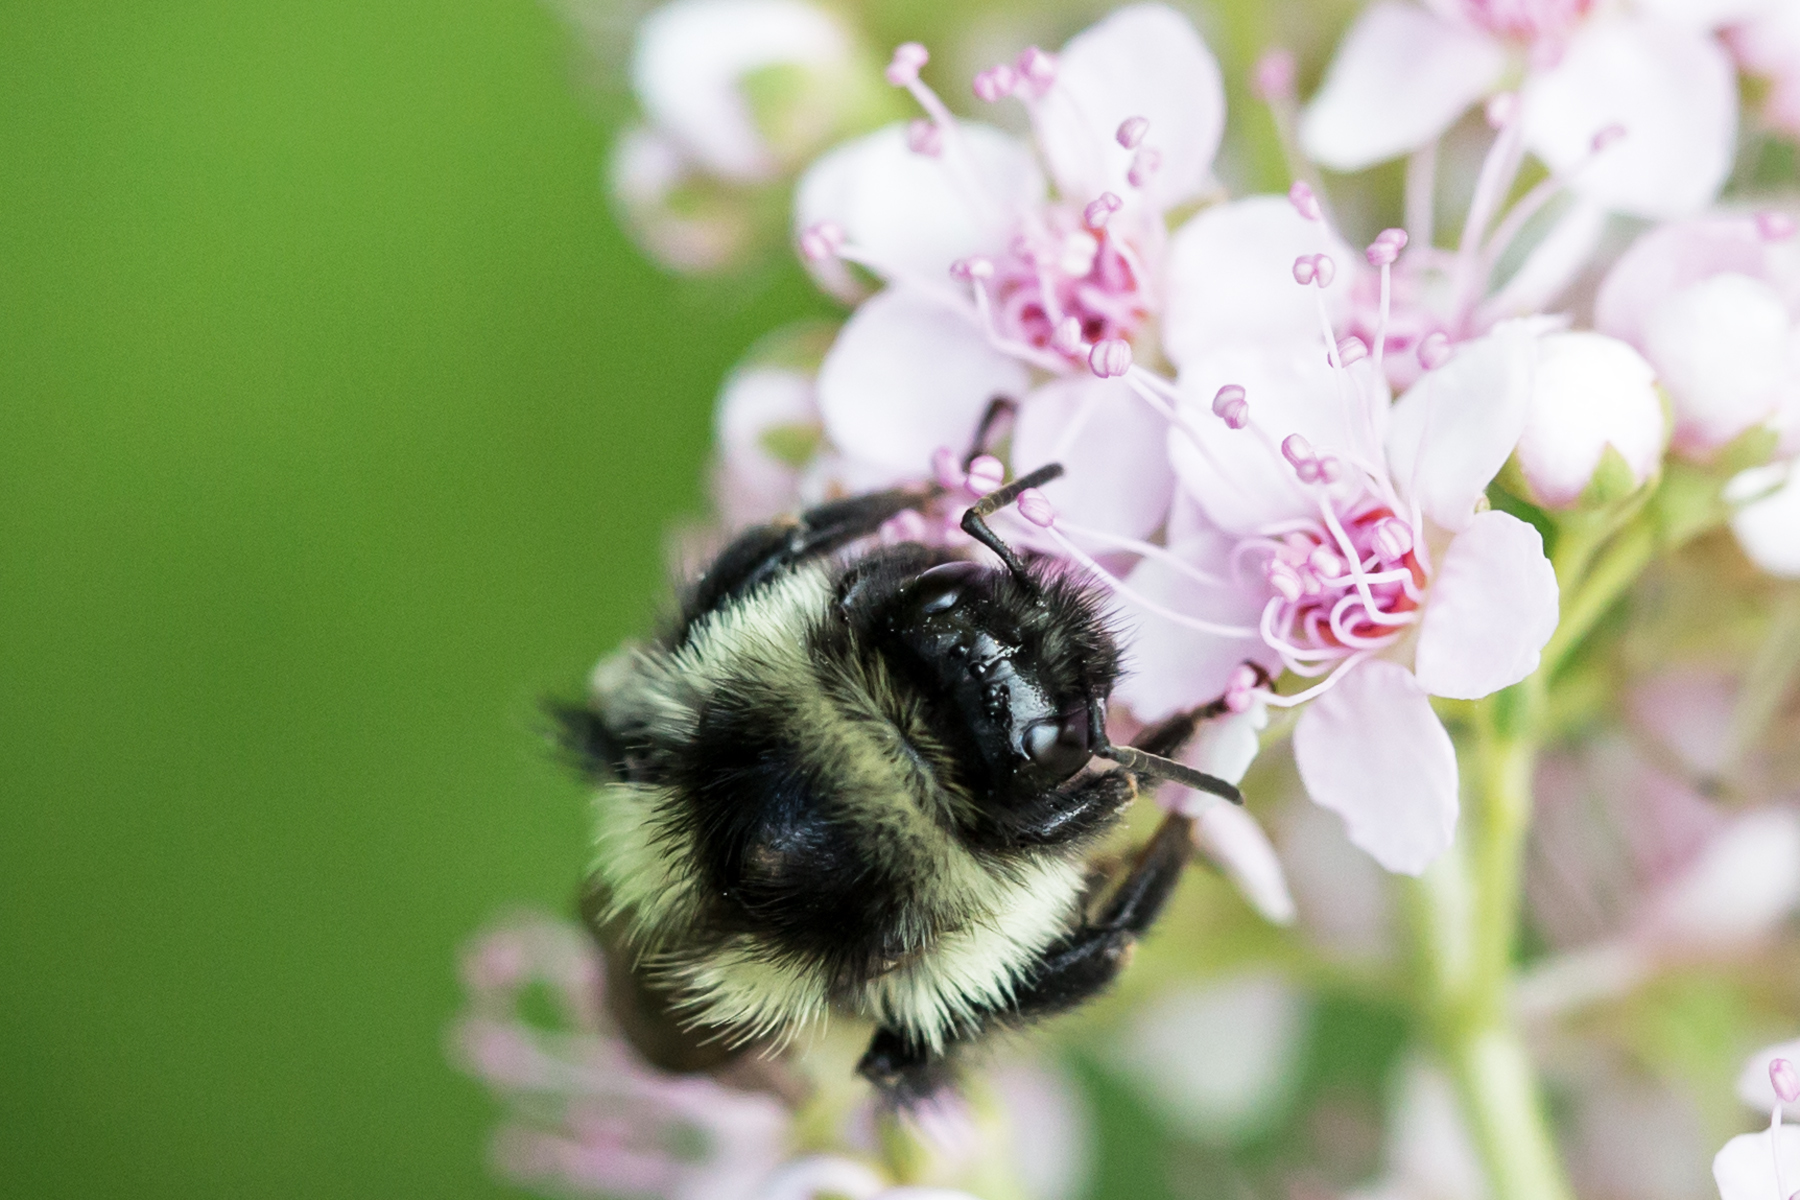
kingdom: Animalia
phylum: Arthropoda
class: Insecta
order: Hymenoptera
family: Apidae
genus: Bombus
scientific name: Bombus ternarius
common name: Tri-colored bumble bee
